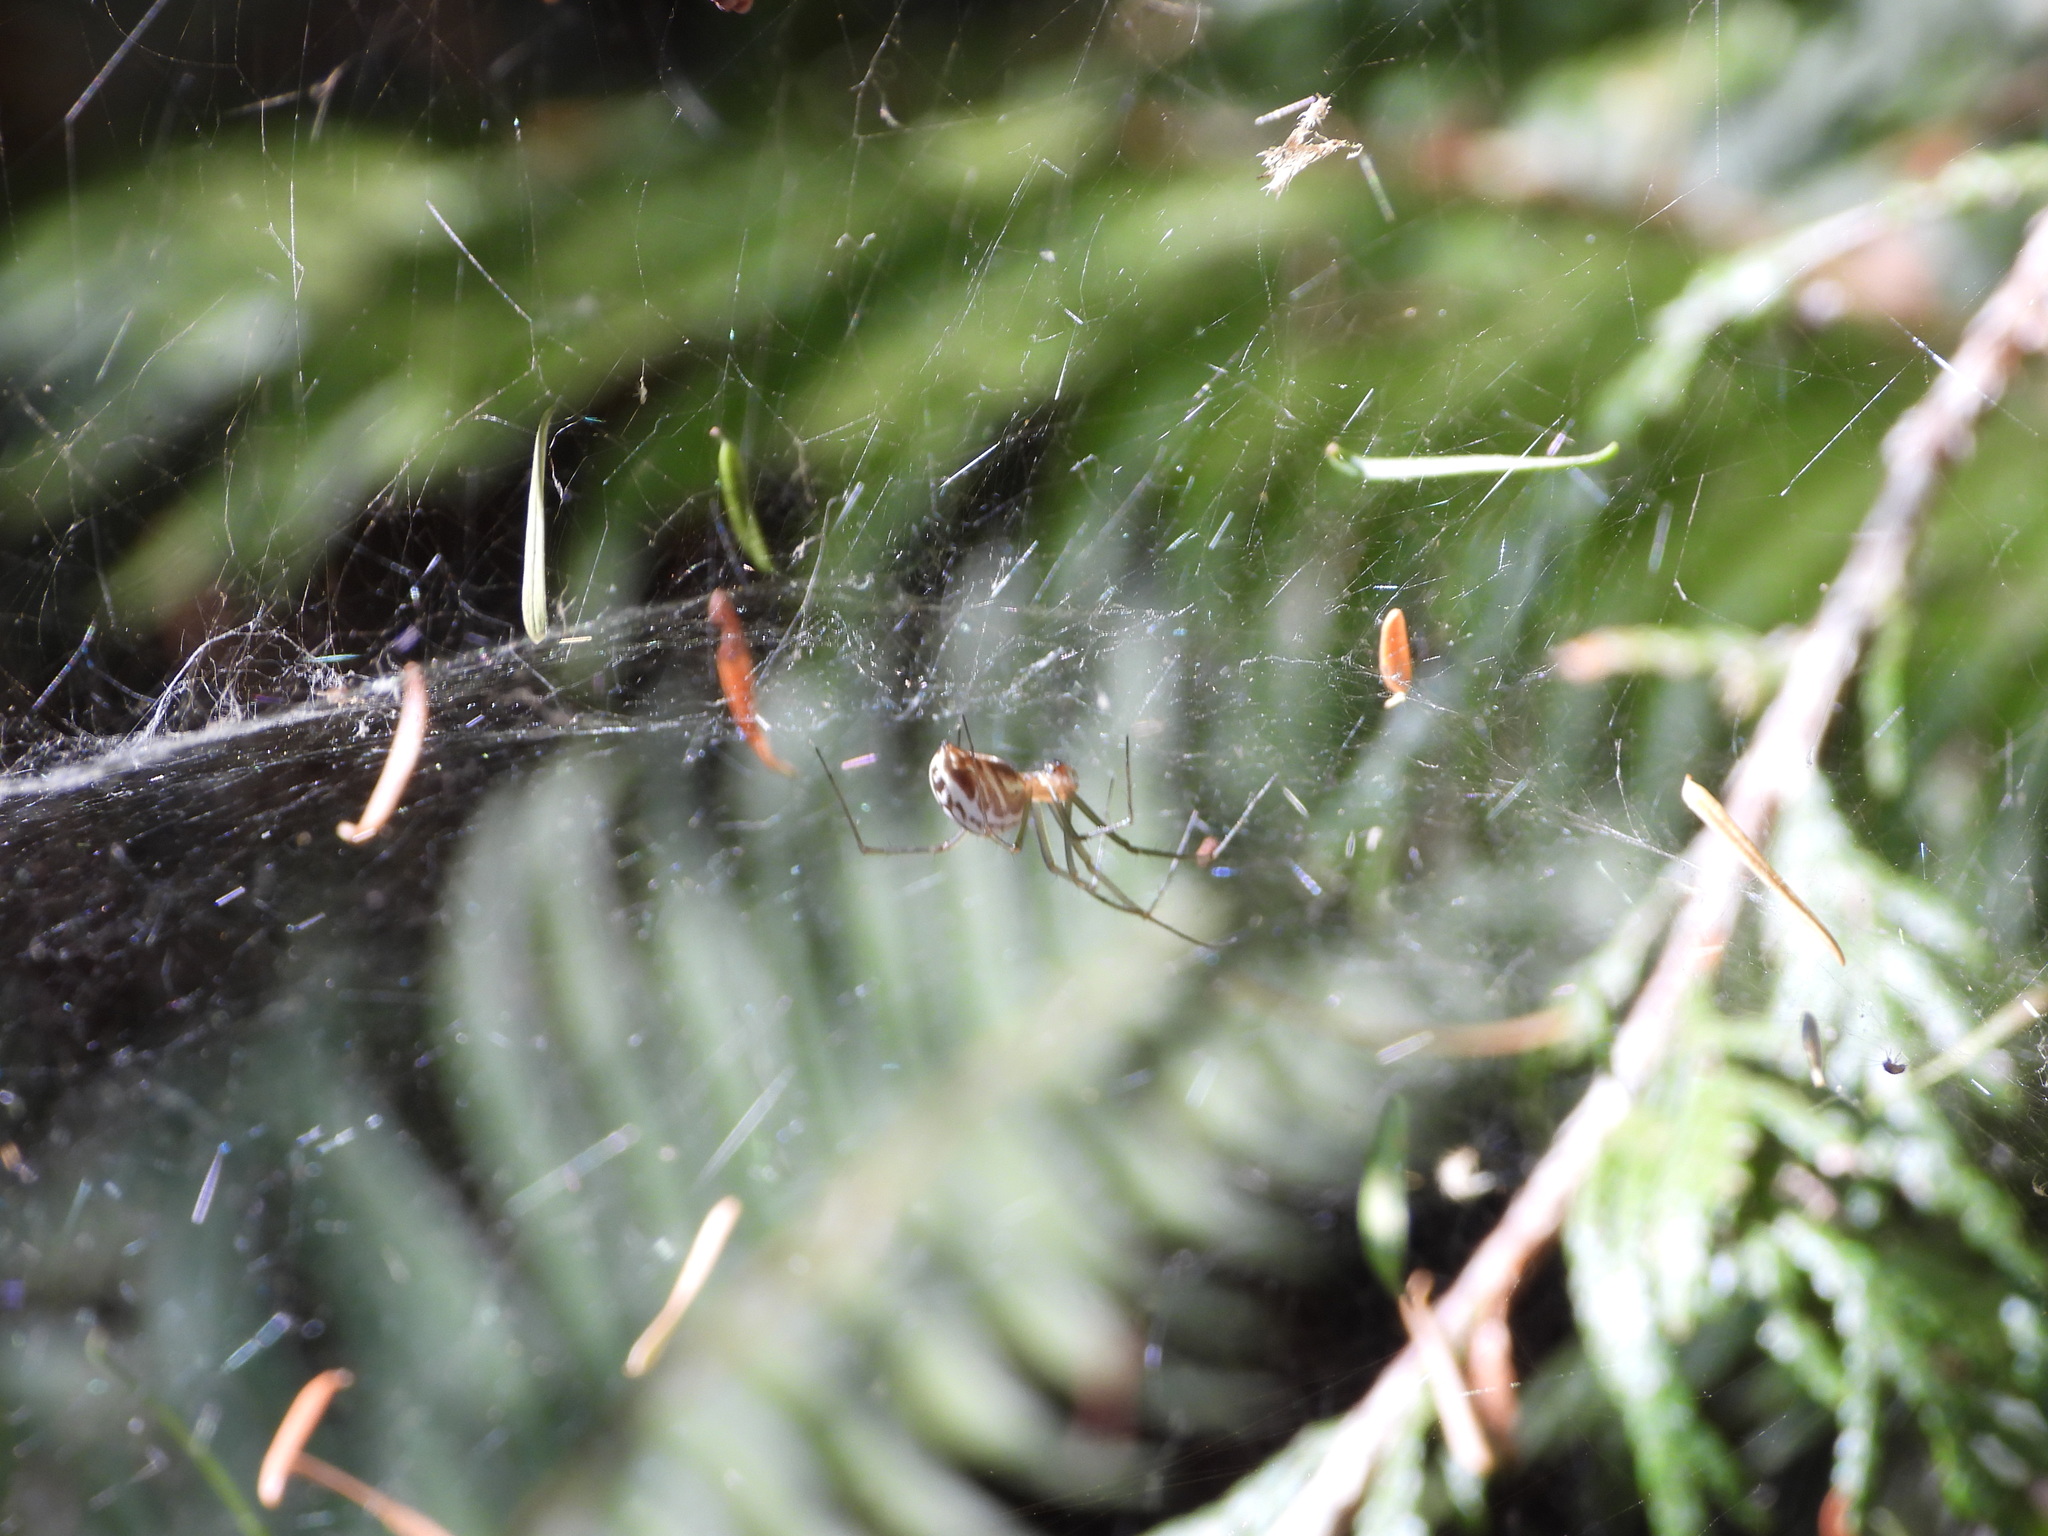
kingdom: Animalia
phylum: Arthropoda
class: Arachnida
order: Araneae
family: Linyphiidae
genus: Neriene
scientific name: Neriene litigiosa
